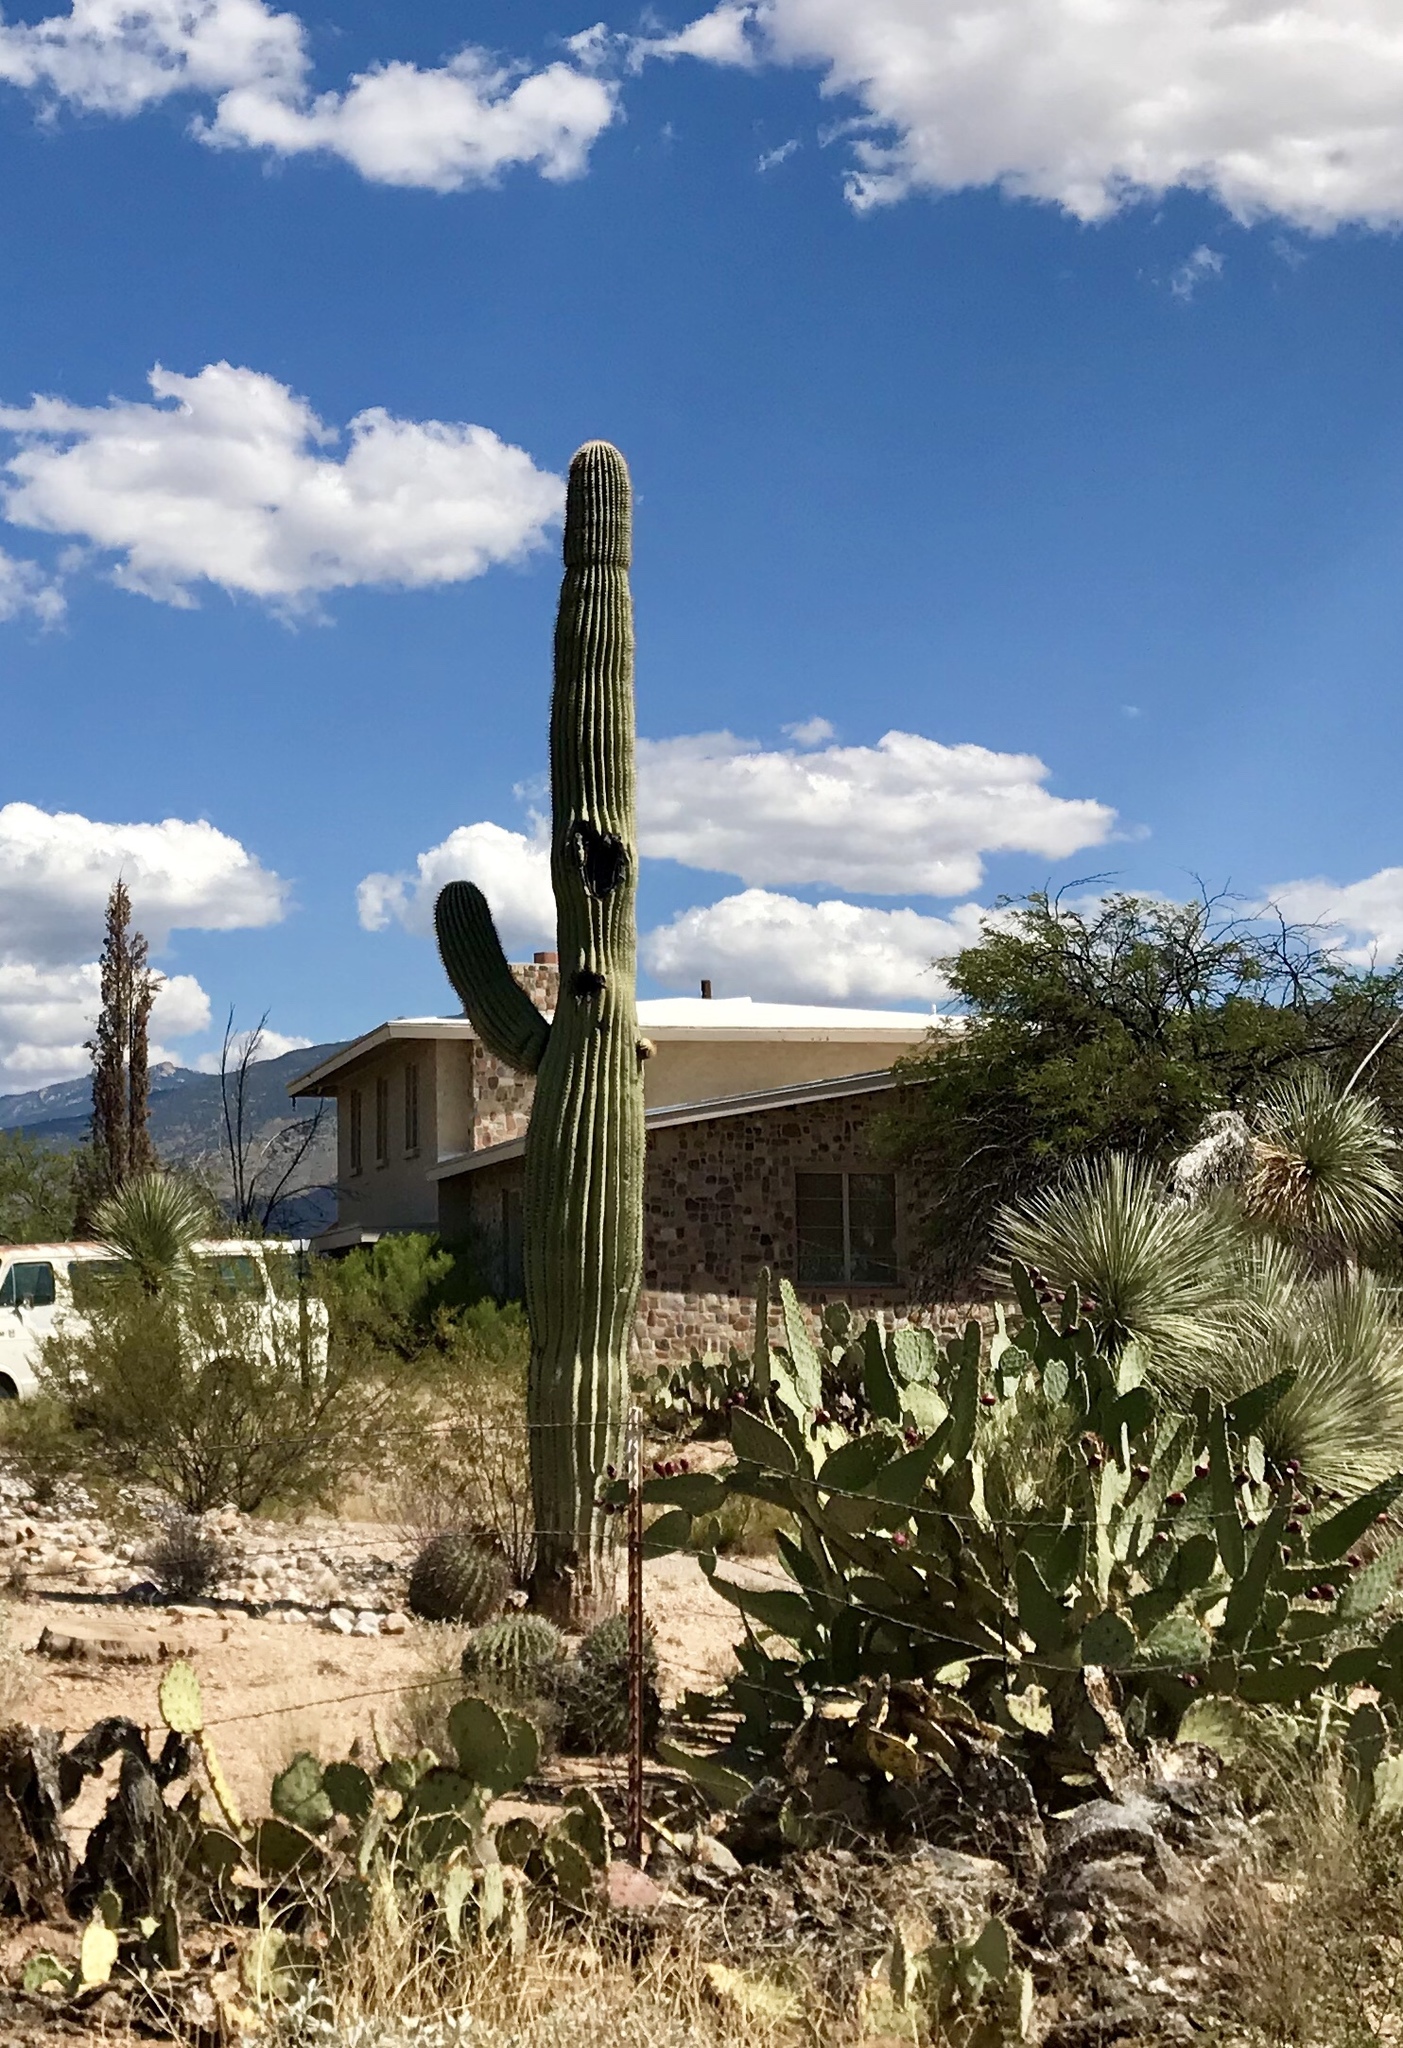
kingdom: Plantae
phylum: Tracheophyta
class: Magnoliopsida
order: Caryophyllales
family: Cactaceae
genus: Carnegiea
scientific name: Carnegiea gigantea
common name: Saguaro
